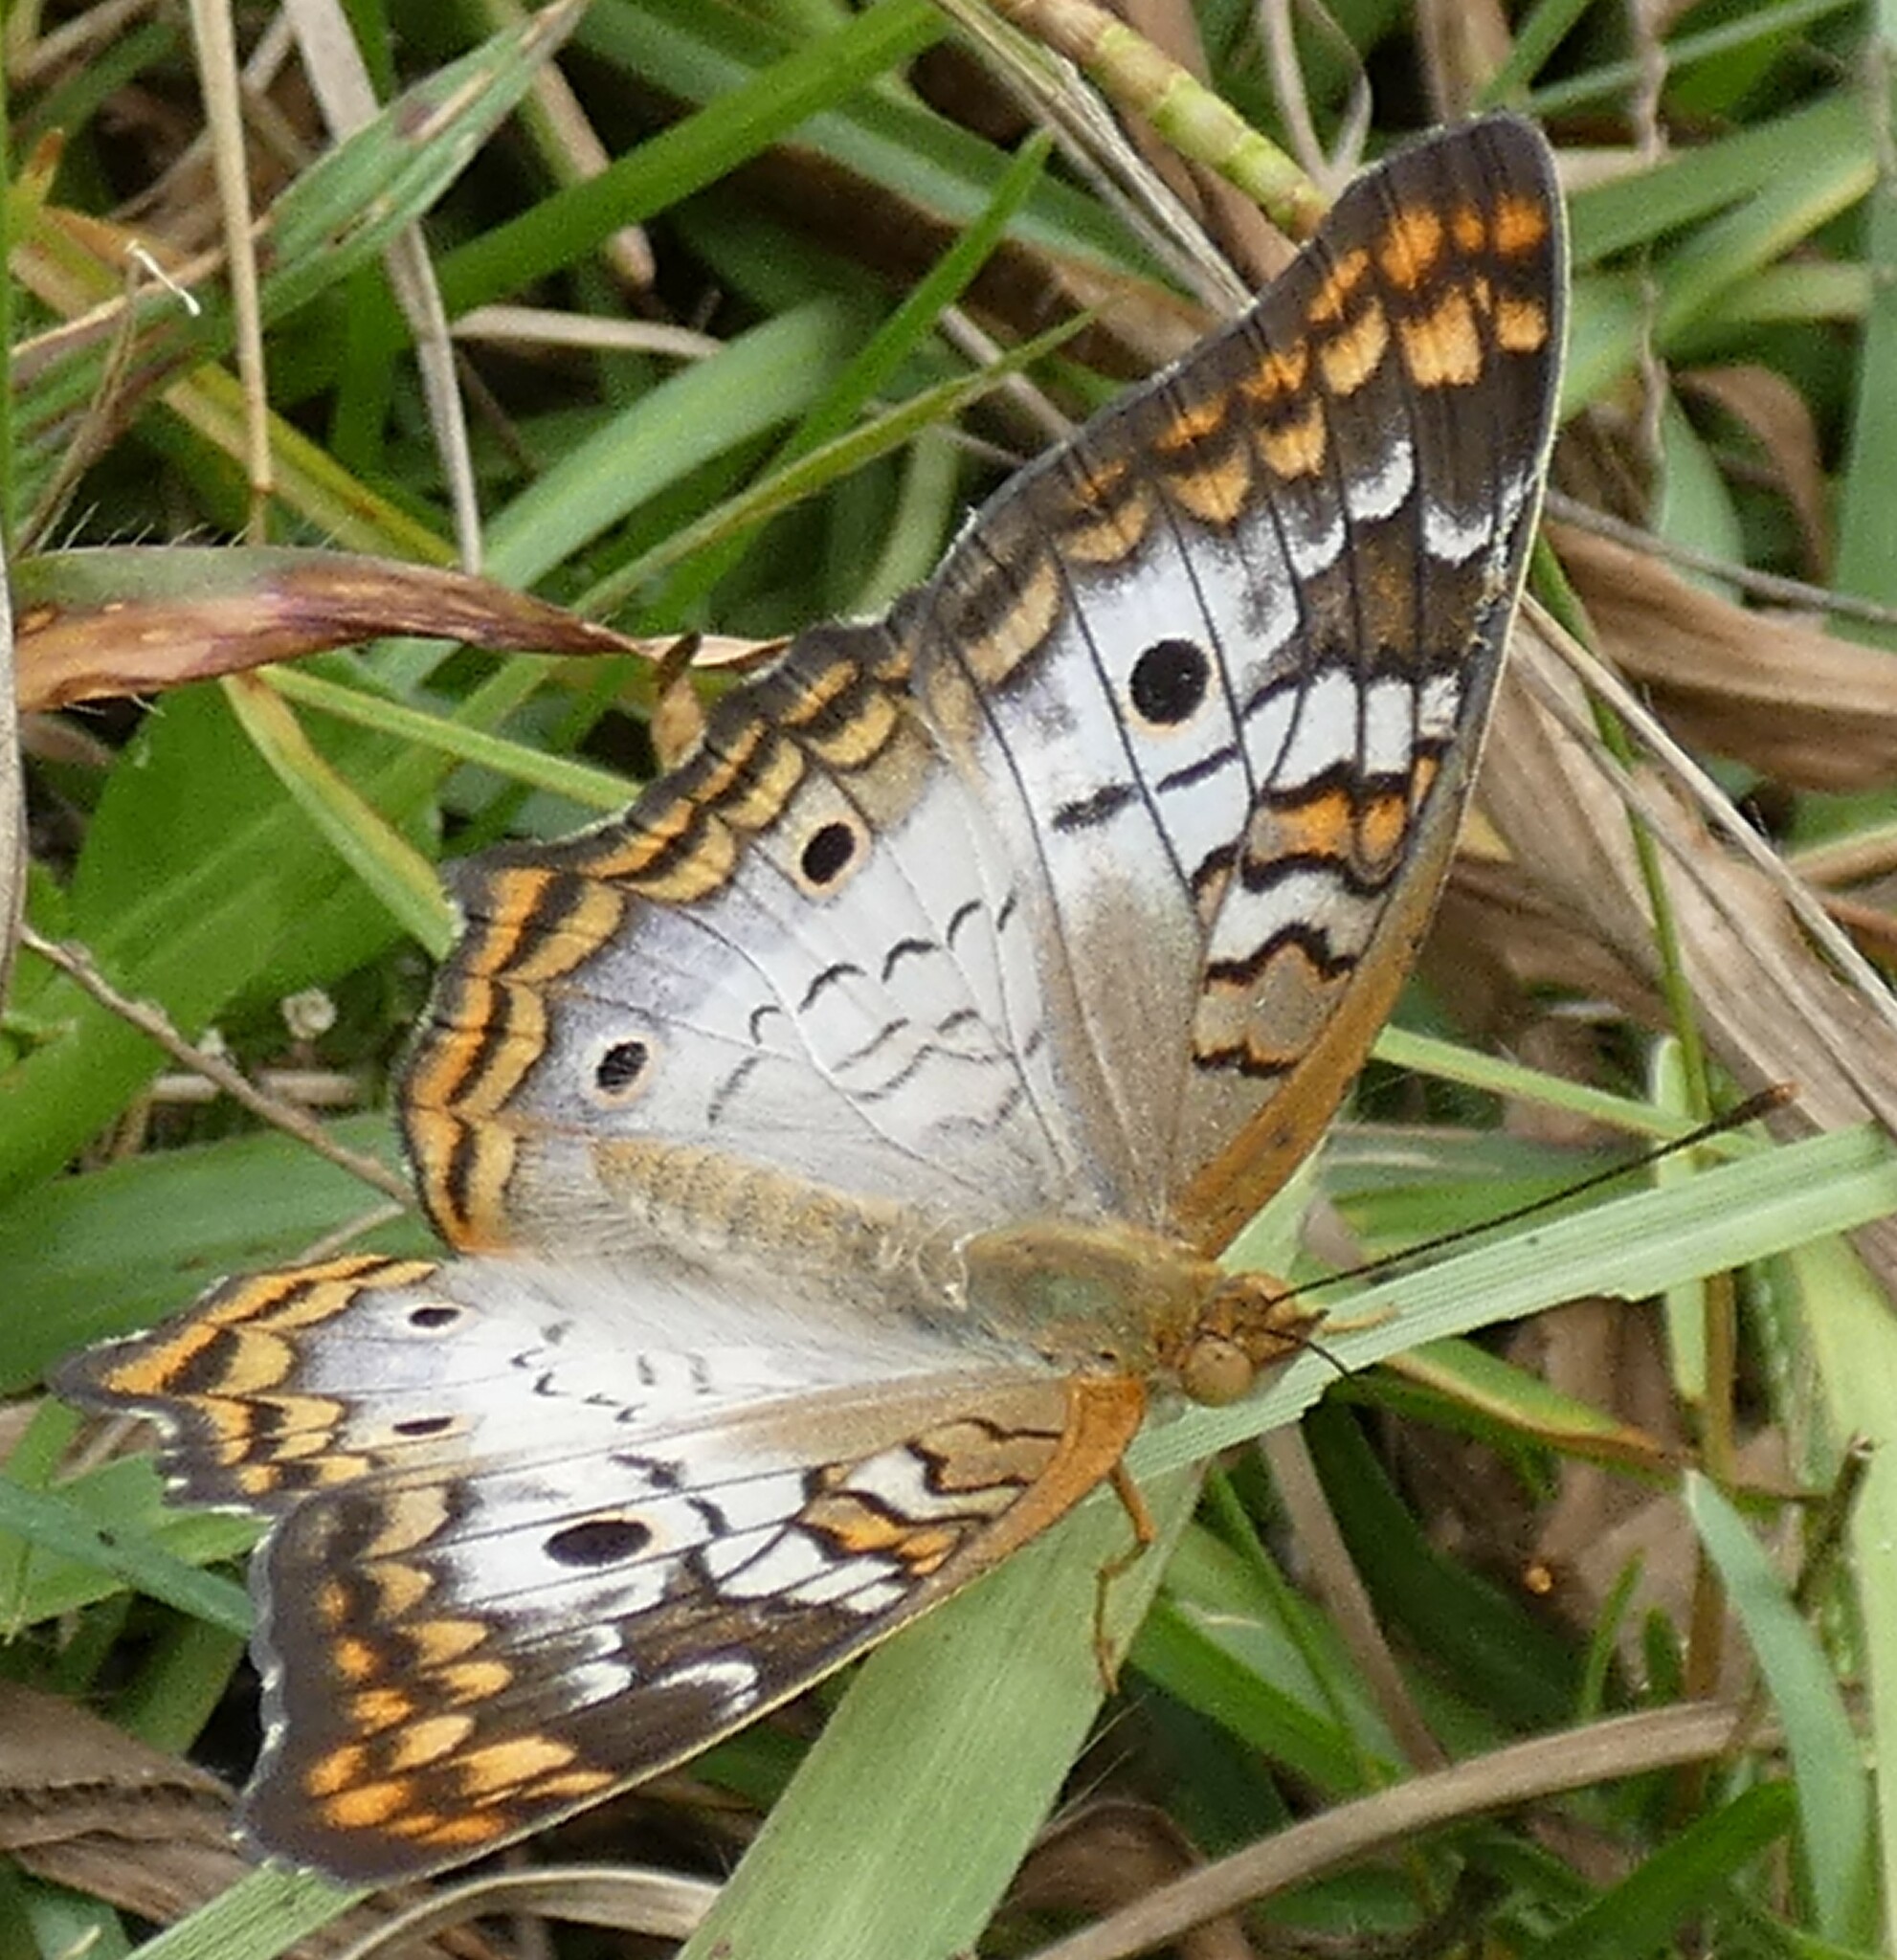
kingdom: Animalia
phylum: Arthropoda
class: Insecta
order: Lepidoptera
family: Nymphalidae
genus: Anartia
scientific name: Anartia jatrophae
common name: White peacock
